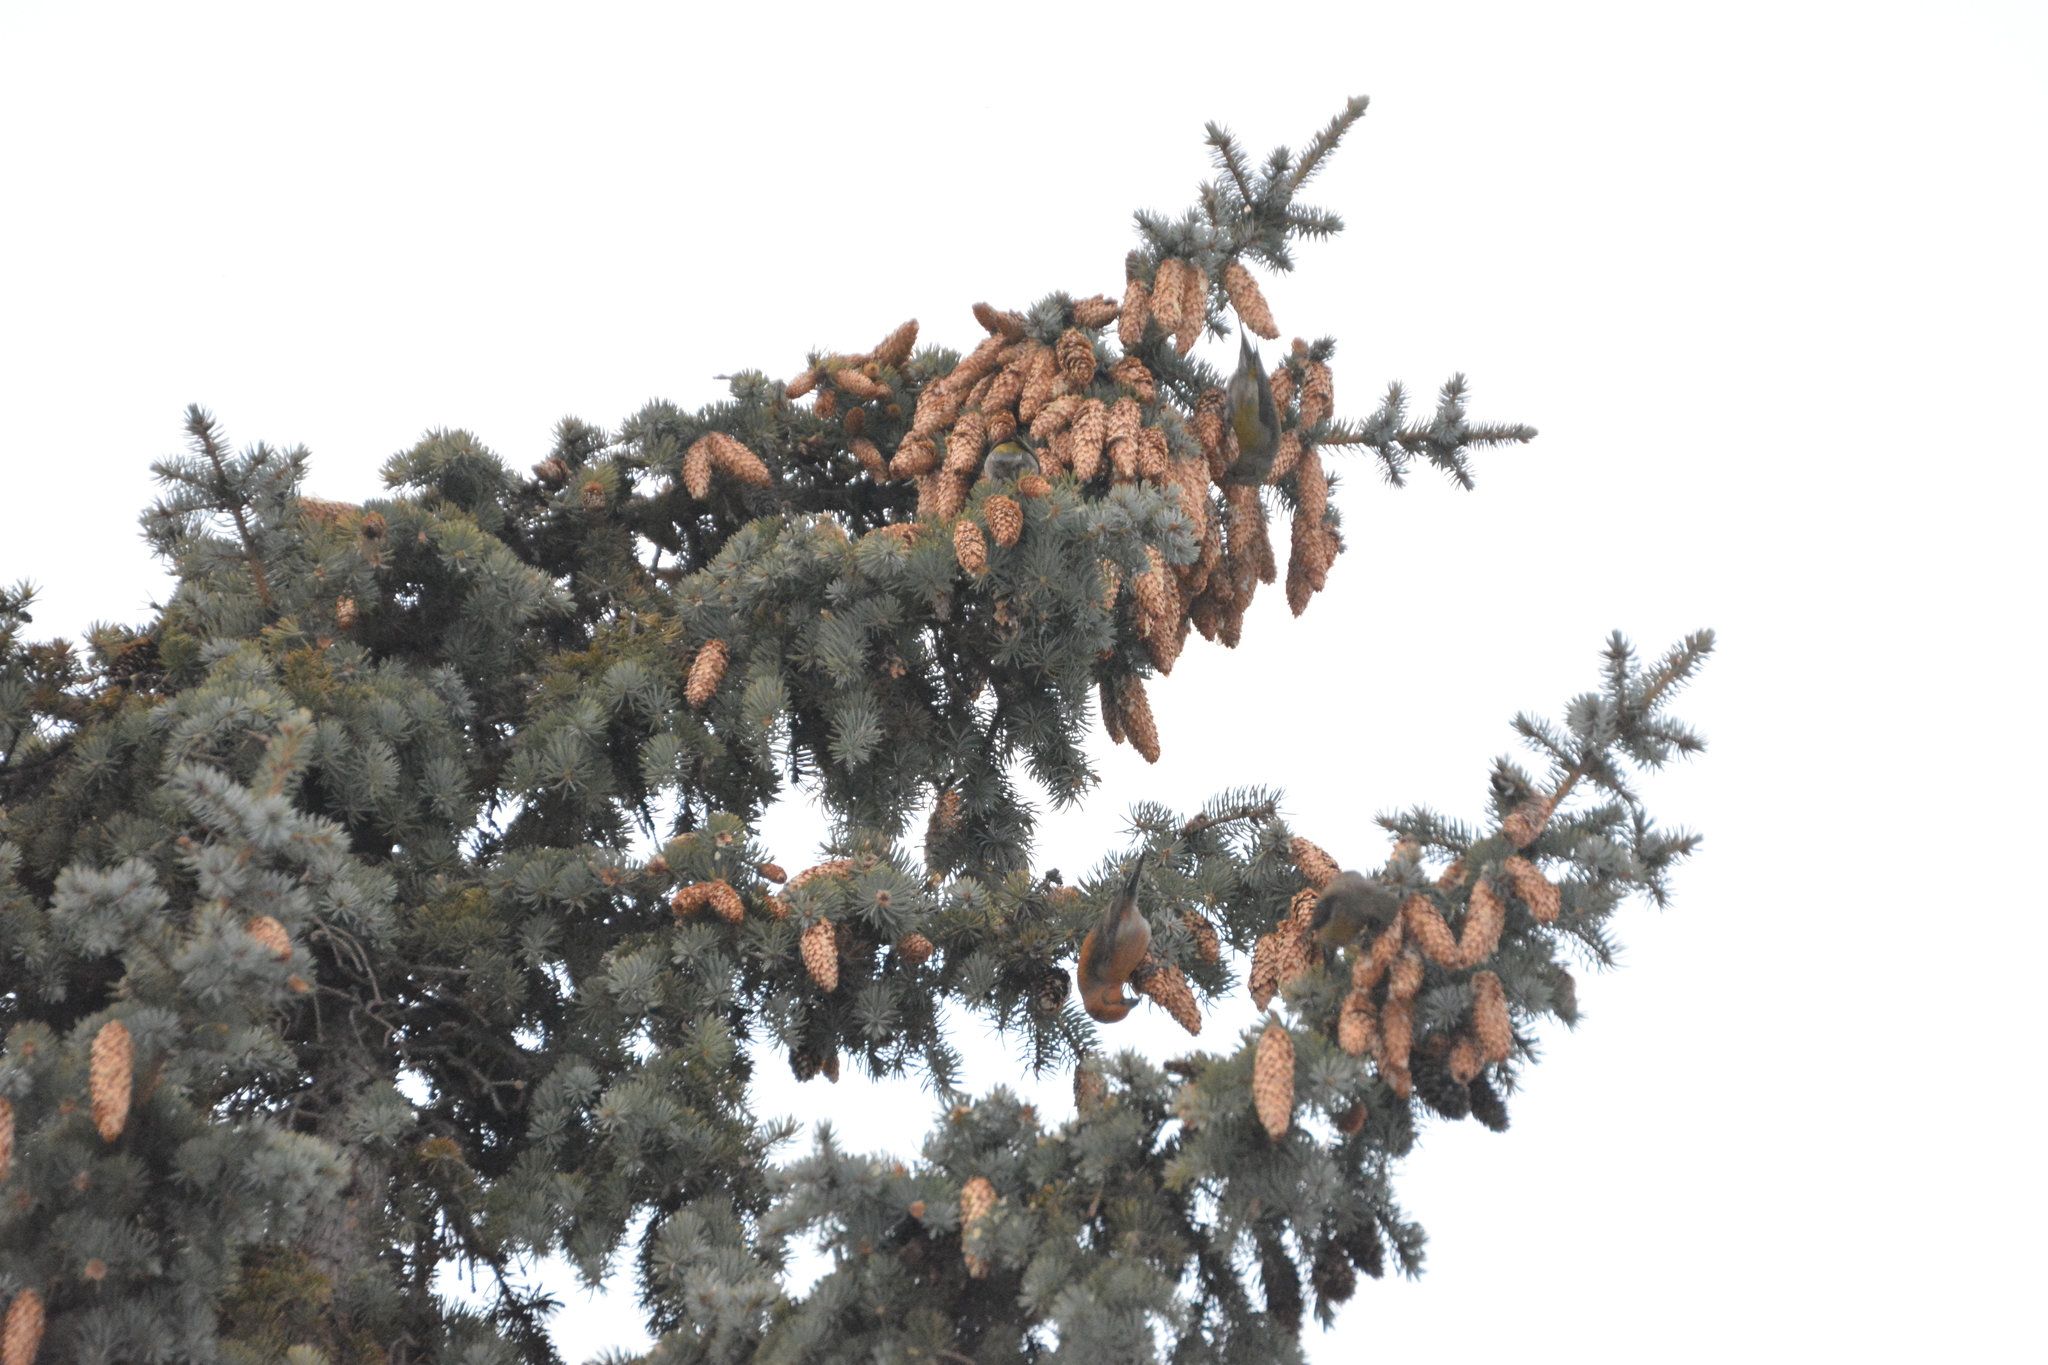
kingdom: Animalia
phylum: Chordata
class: Aves
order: Passeriformes
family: Fringillidae
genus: Loxia
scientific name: Loxia curvirostra
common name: Red crossbill
